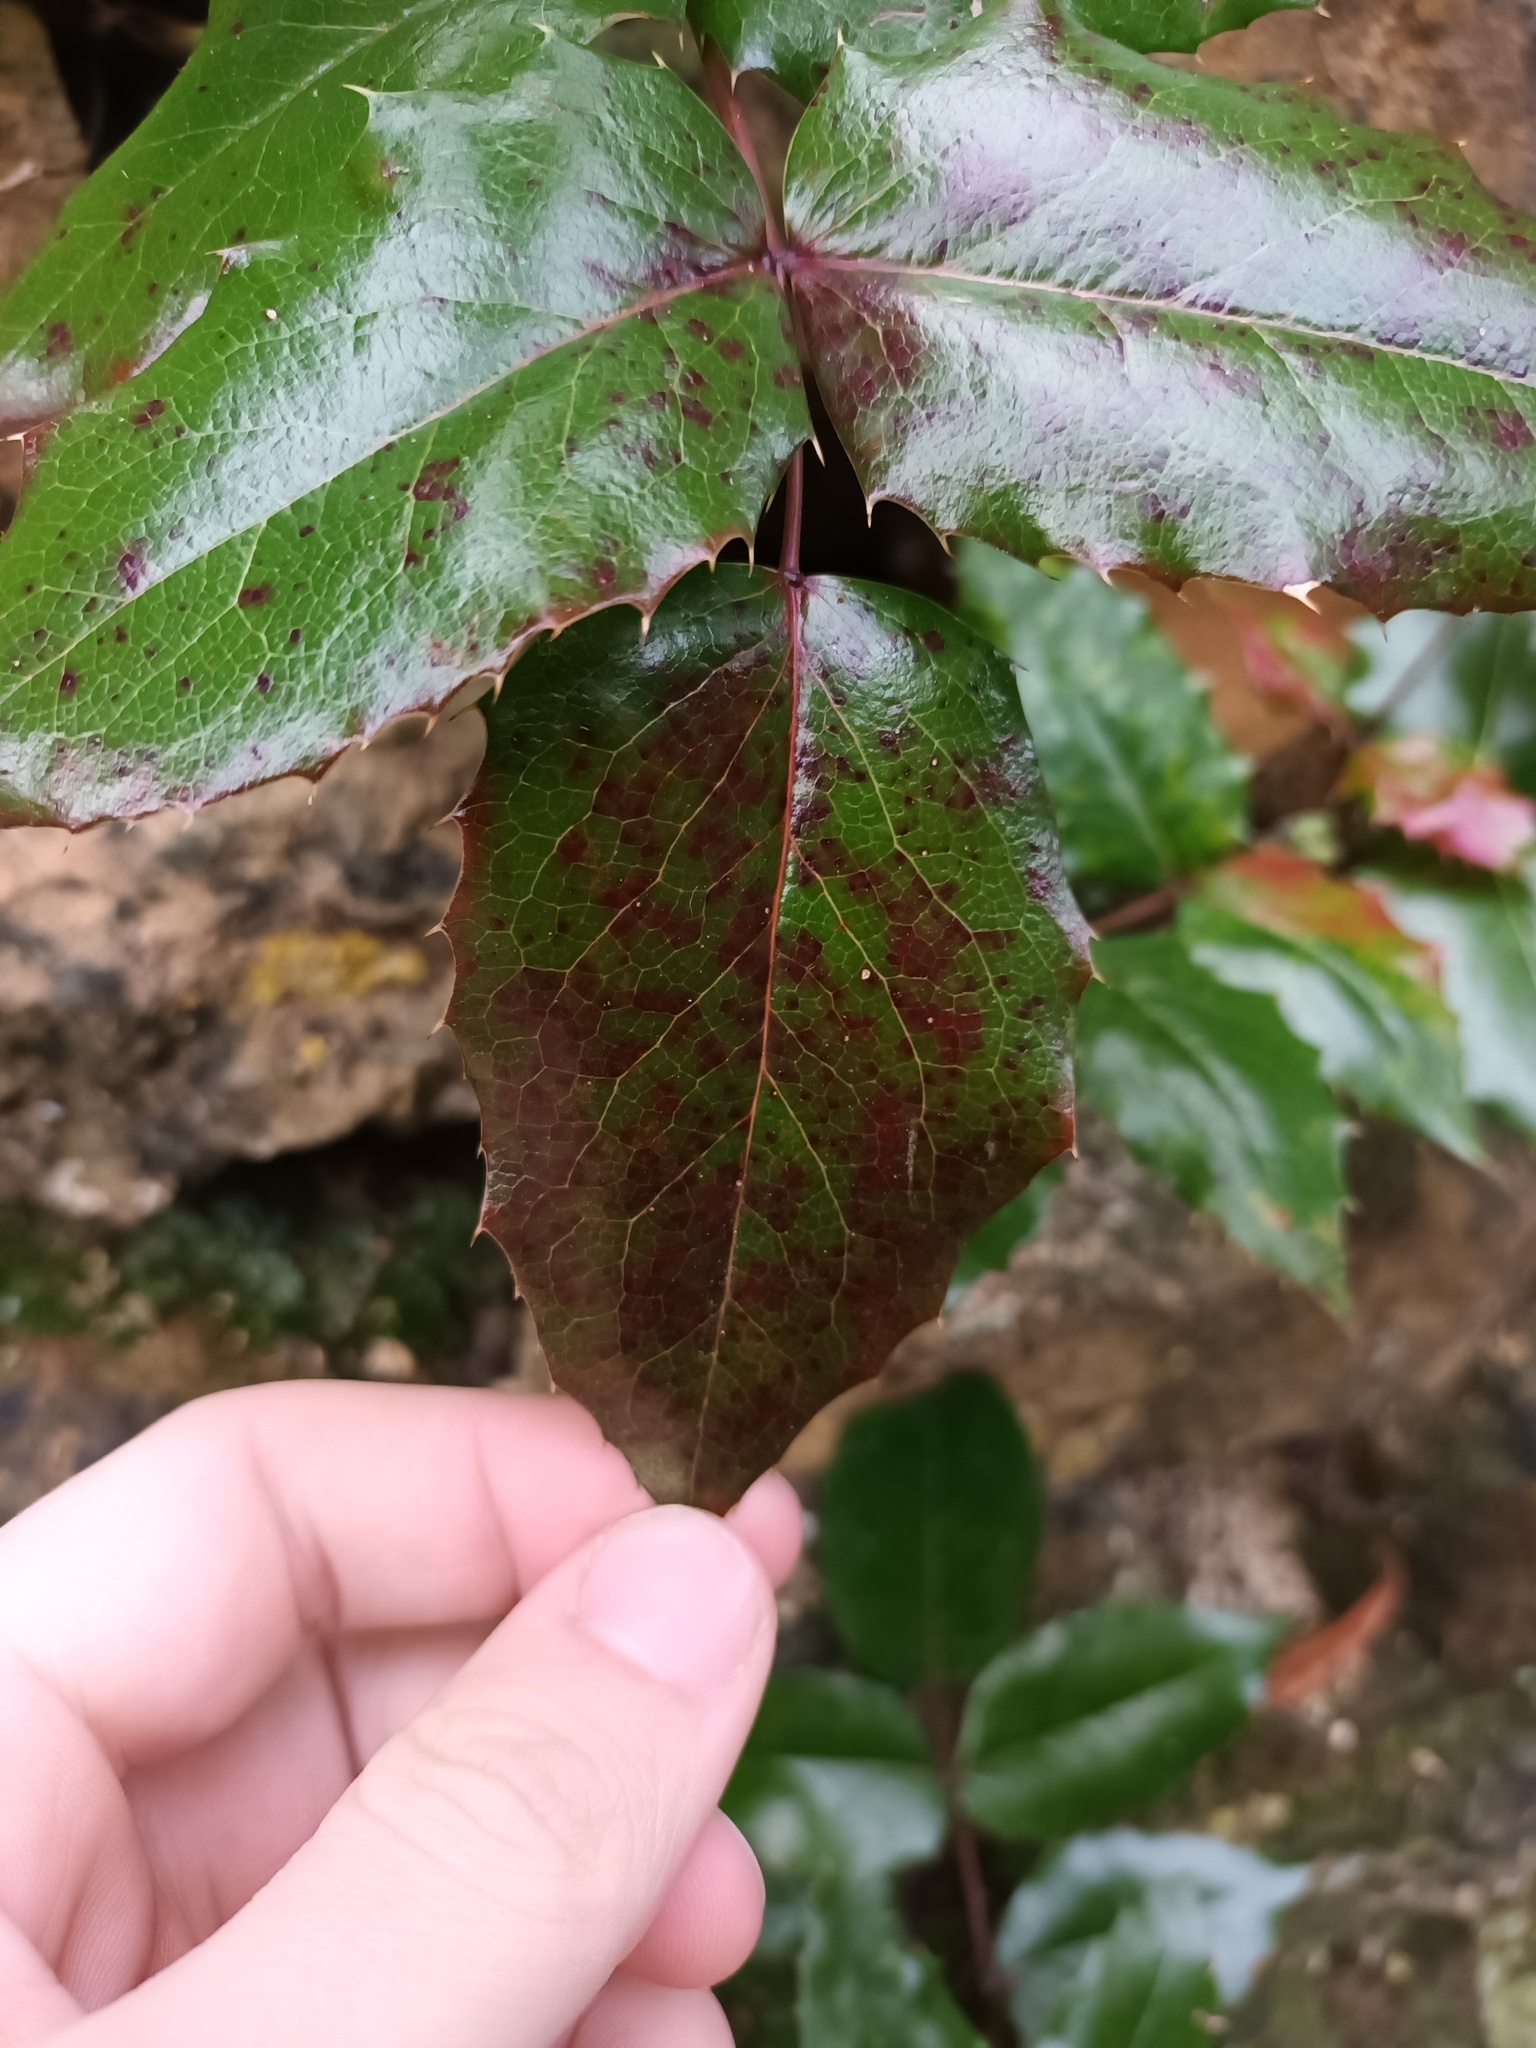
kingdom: Fungi
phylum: Basidiomycota
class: Pucciniomycetes
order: Pucciniales
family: Pucciniaceae
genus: Cumminsiella
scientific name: Cumminsiella mirabilissima
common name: Mahonia rust
